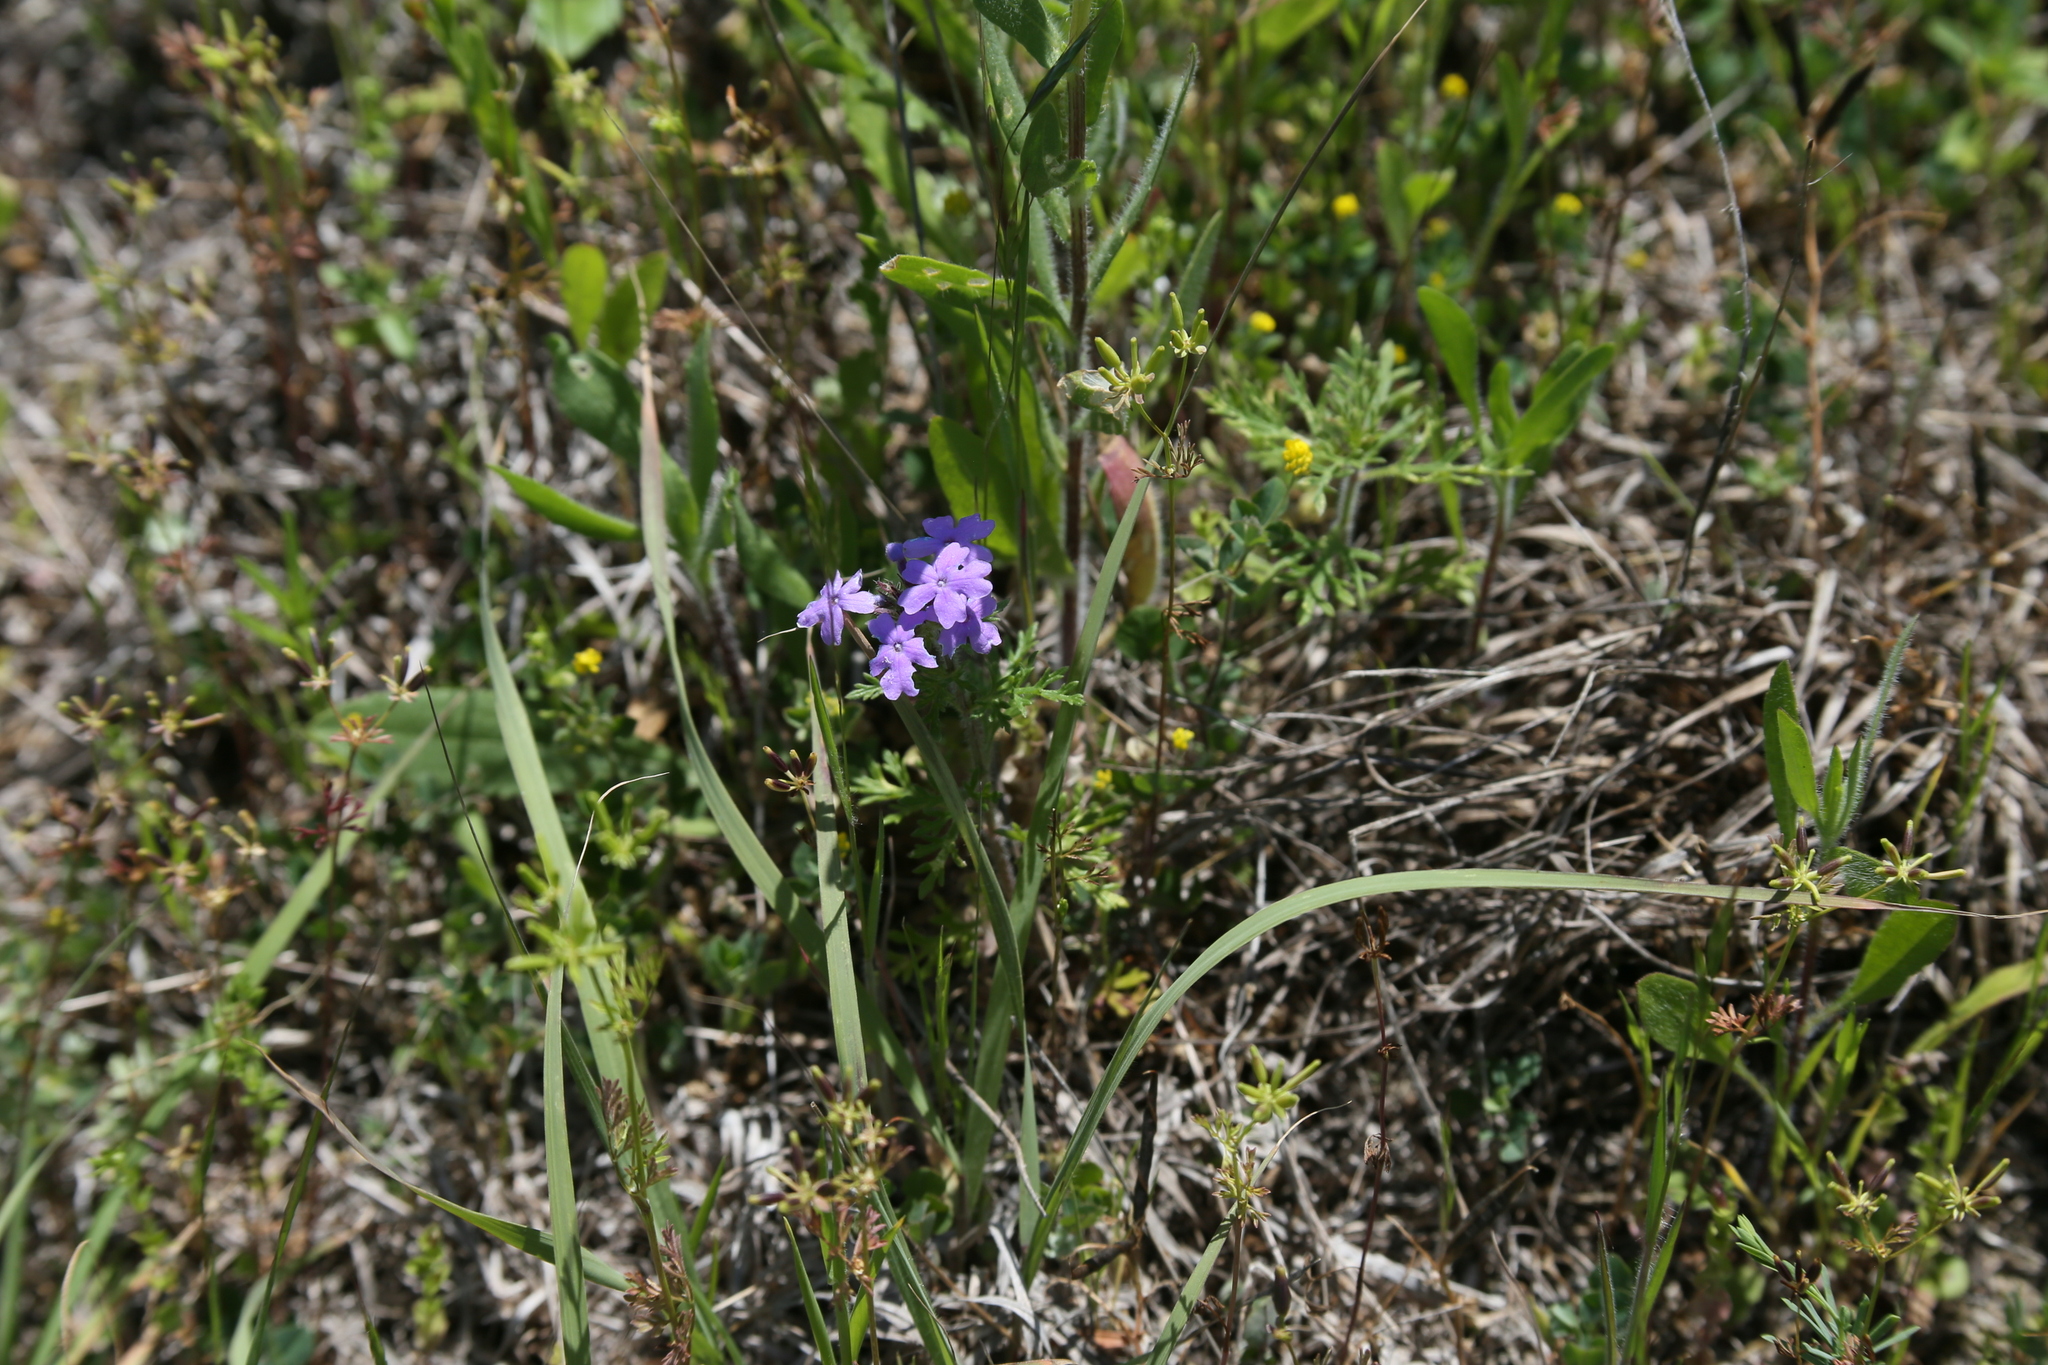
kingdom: Plantae
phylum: Tracheophyta
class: Magnoliopsida
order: Lamiales
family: Verbenaceae
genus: Verbena
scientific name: Verbena bipinnatifida
